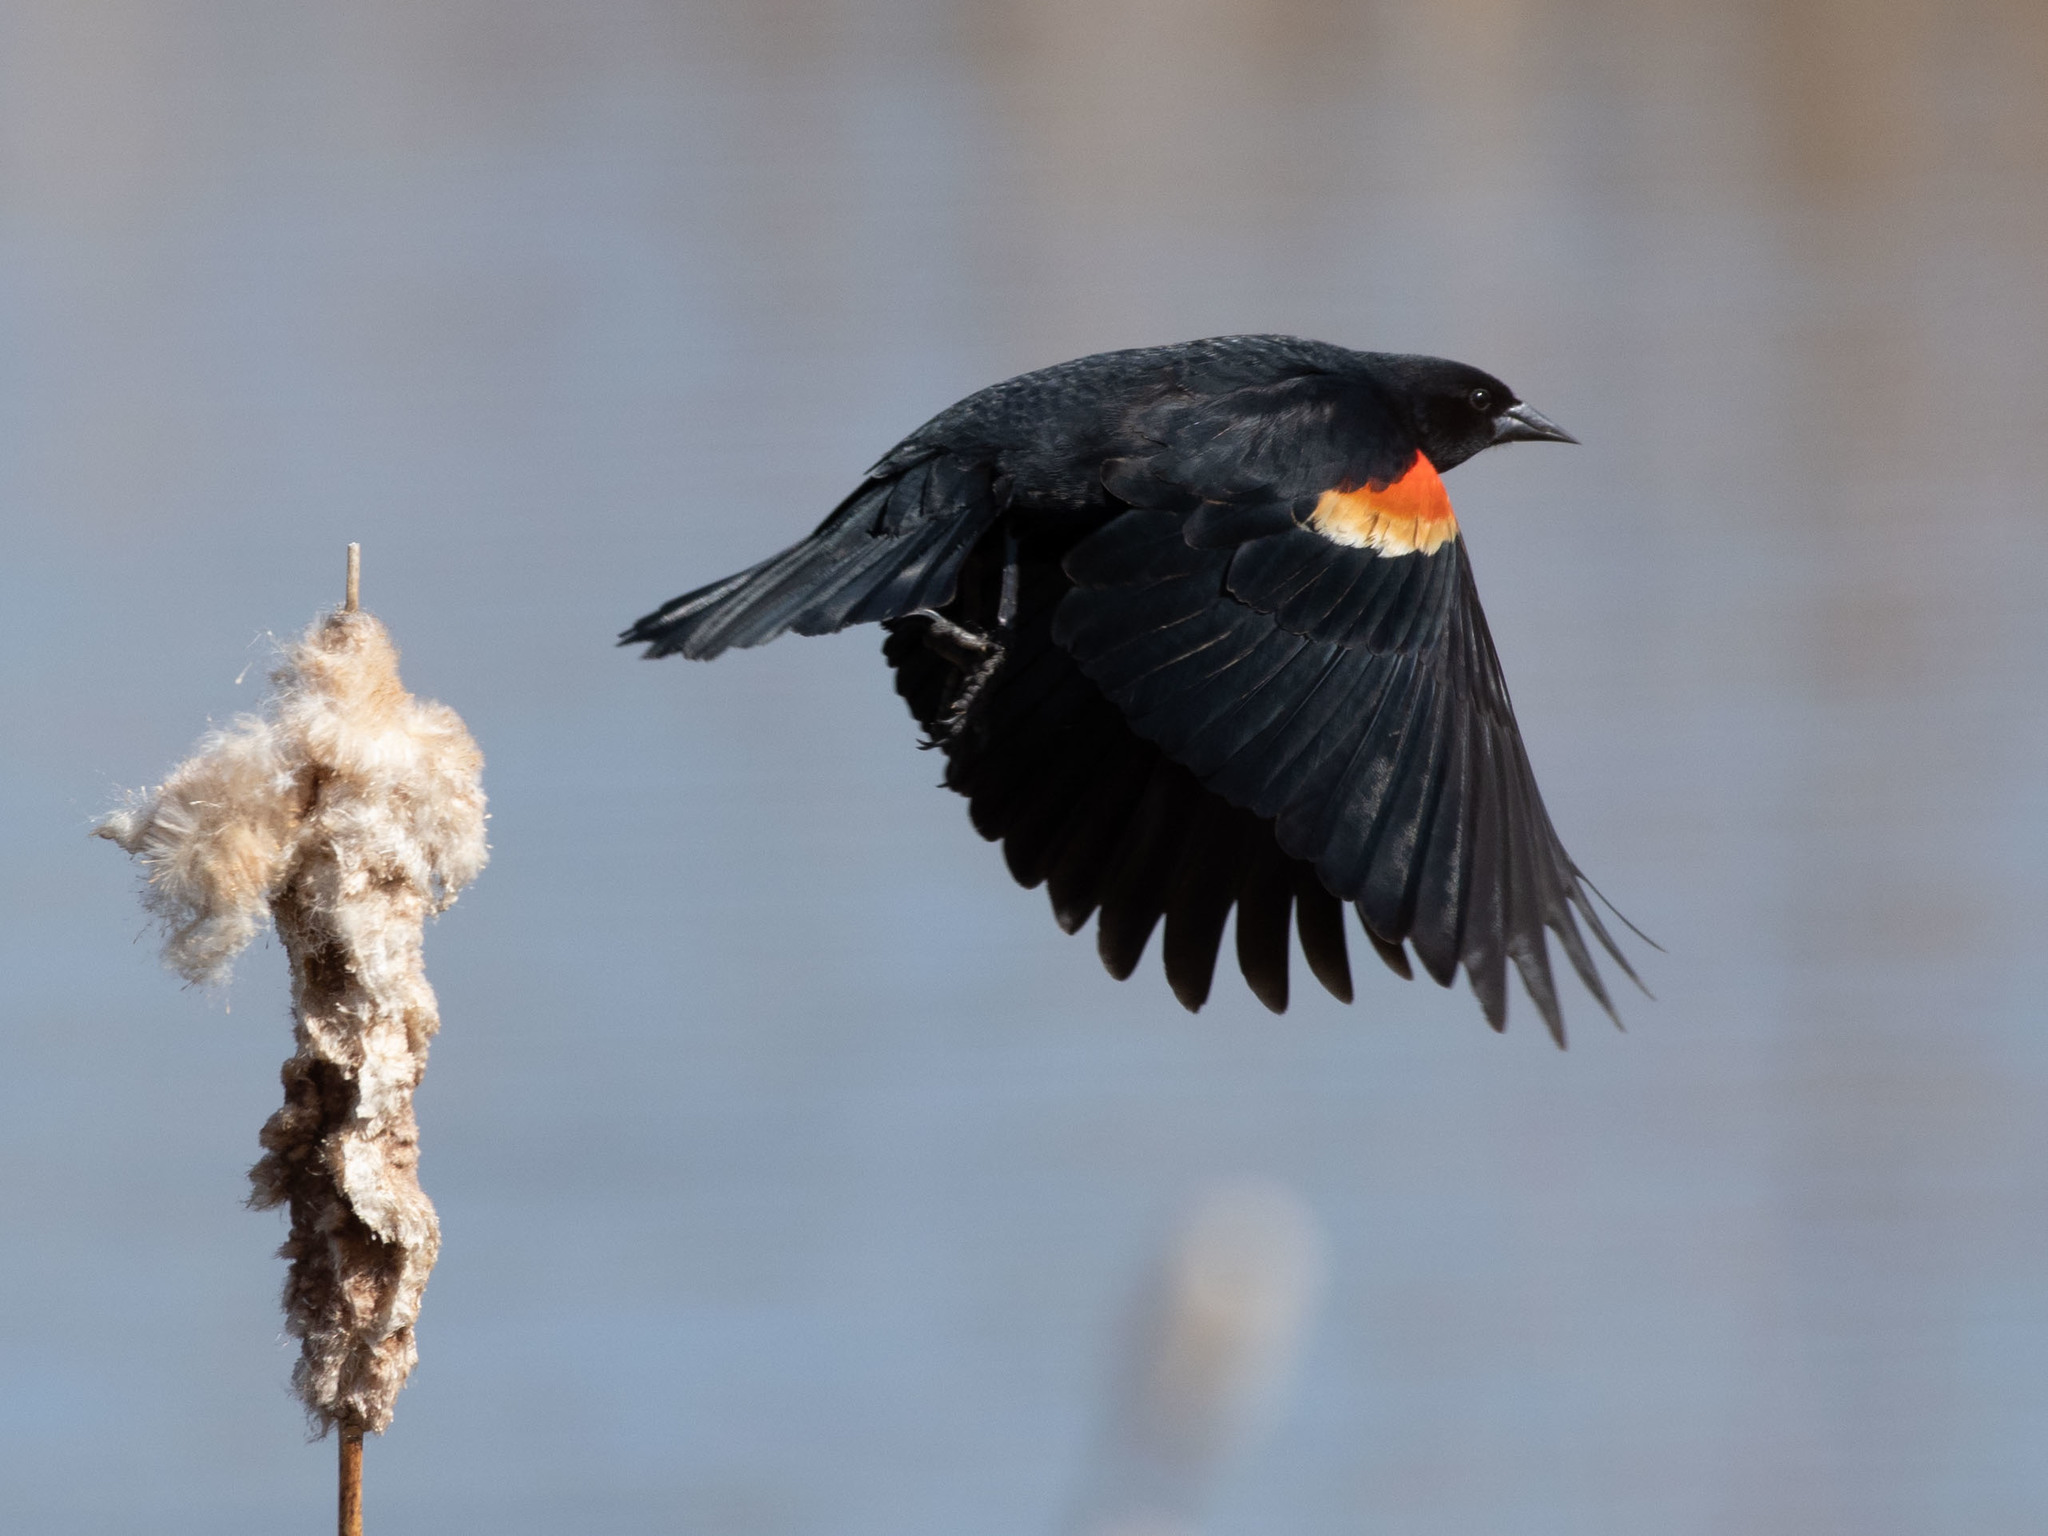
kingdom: Animalia
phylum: Chordata
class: Aves
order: Passeriformes
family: Icteridae
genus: Agelaius
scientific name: Agelaius phoeniceus
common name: Red-winged blackbird
